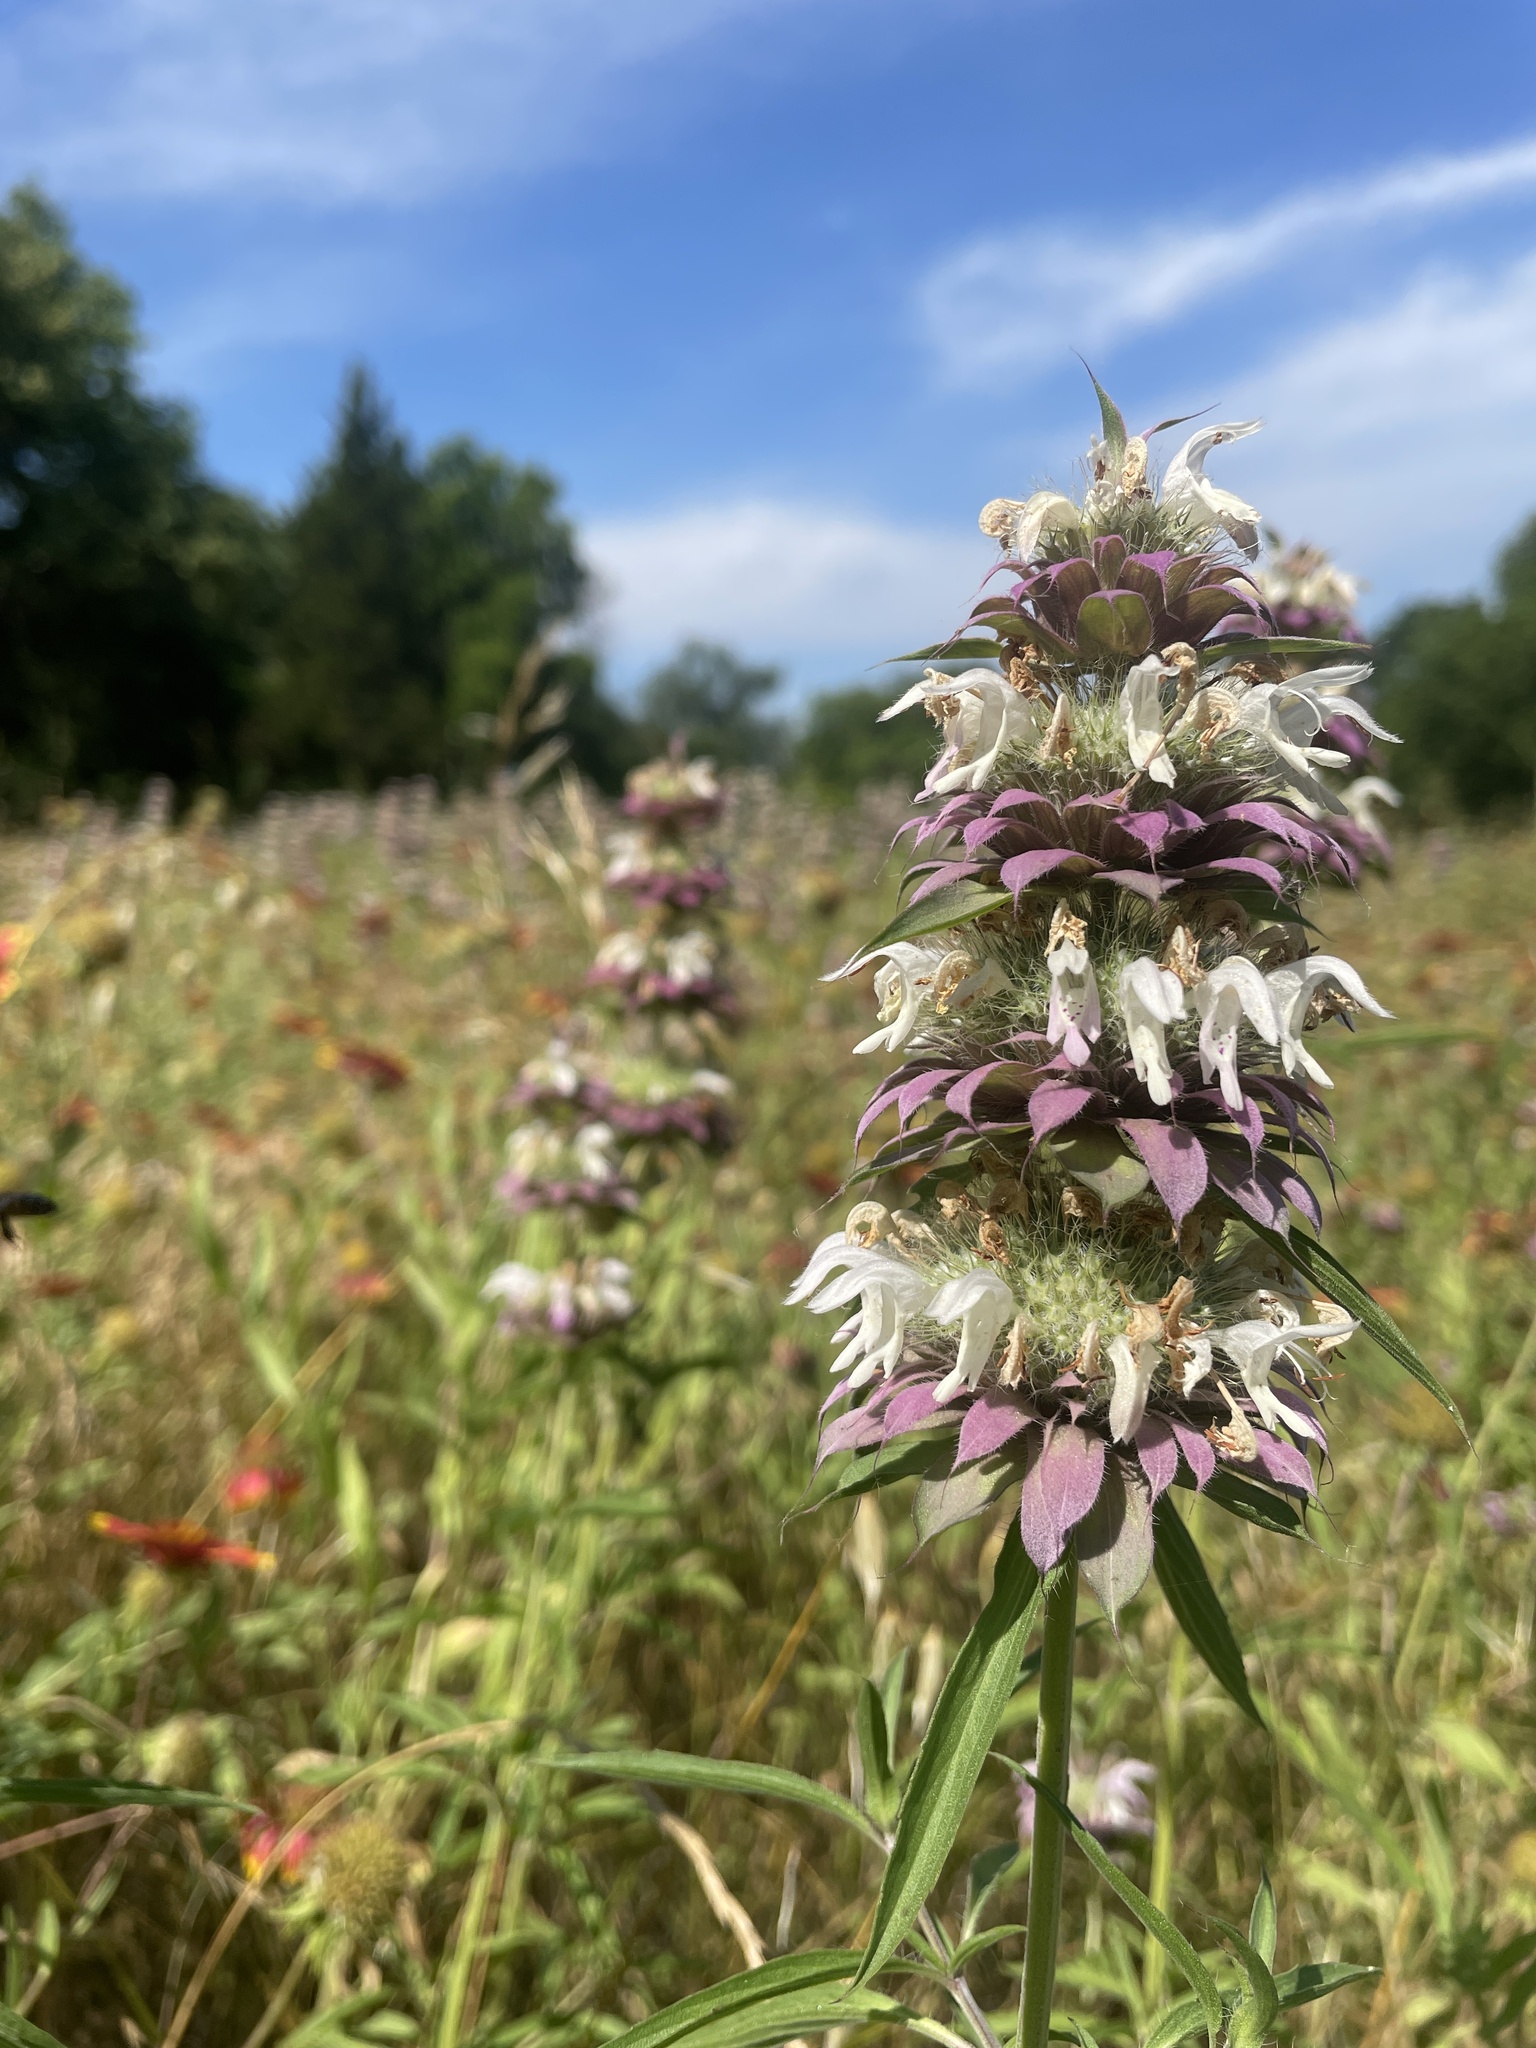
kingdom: Plantae
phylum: Tracheophyta
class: Magnoliopsida
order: Lamiales
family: Lamiaceae
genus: Monarda
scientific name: Monarda citriodora
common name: Lemon beebalm
